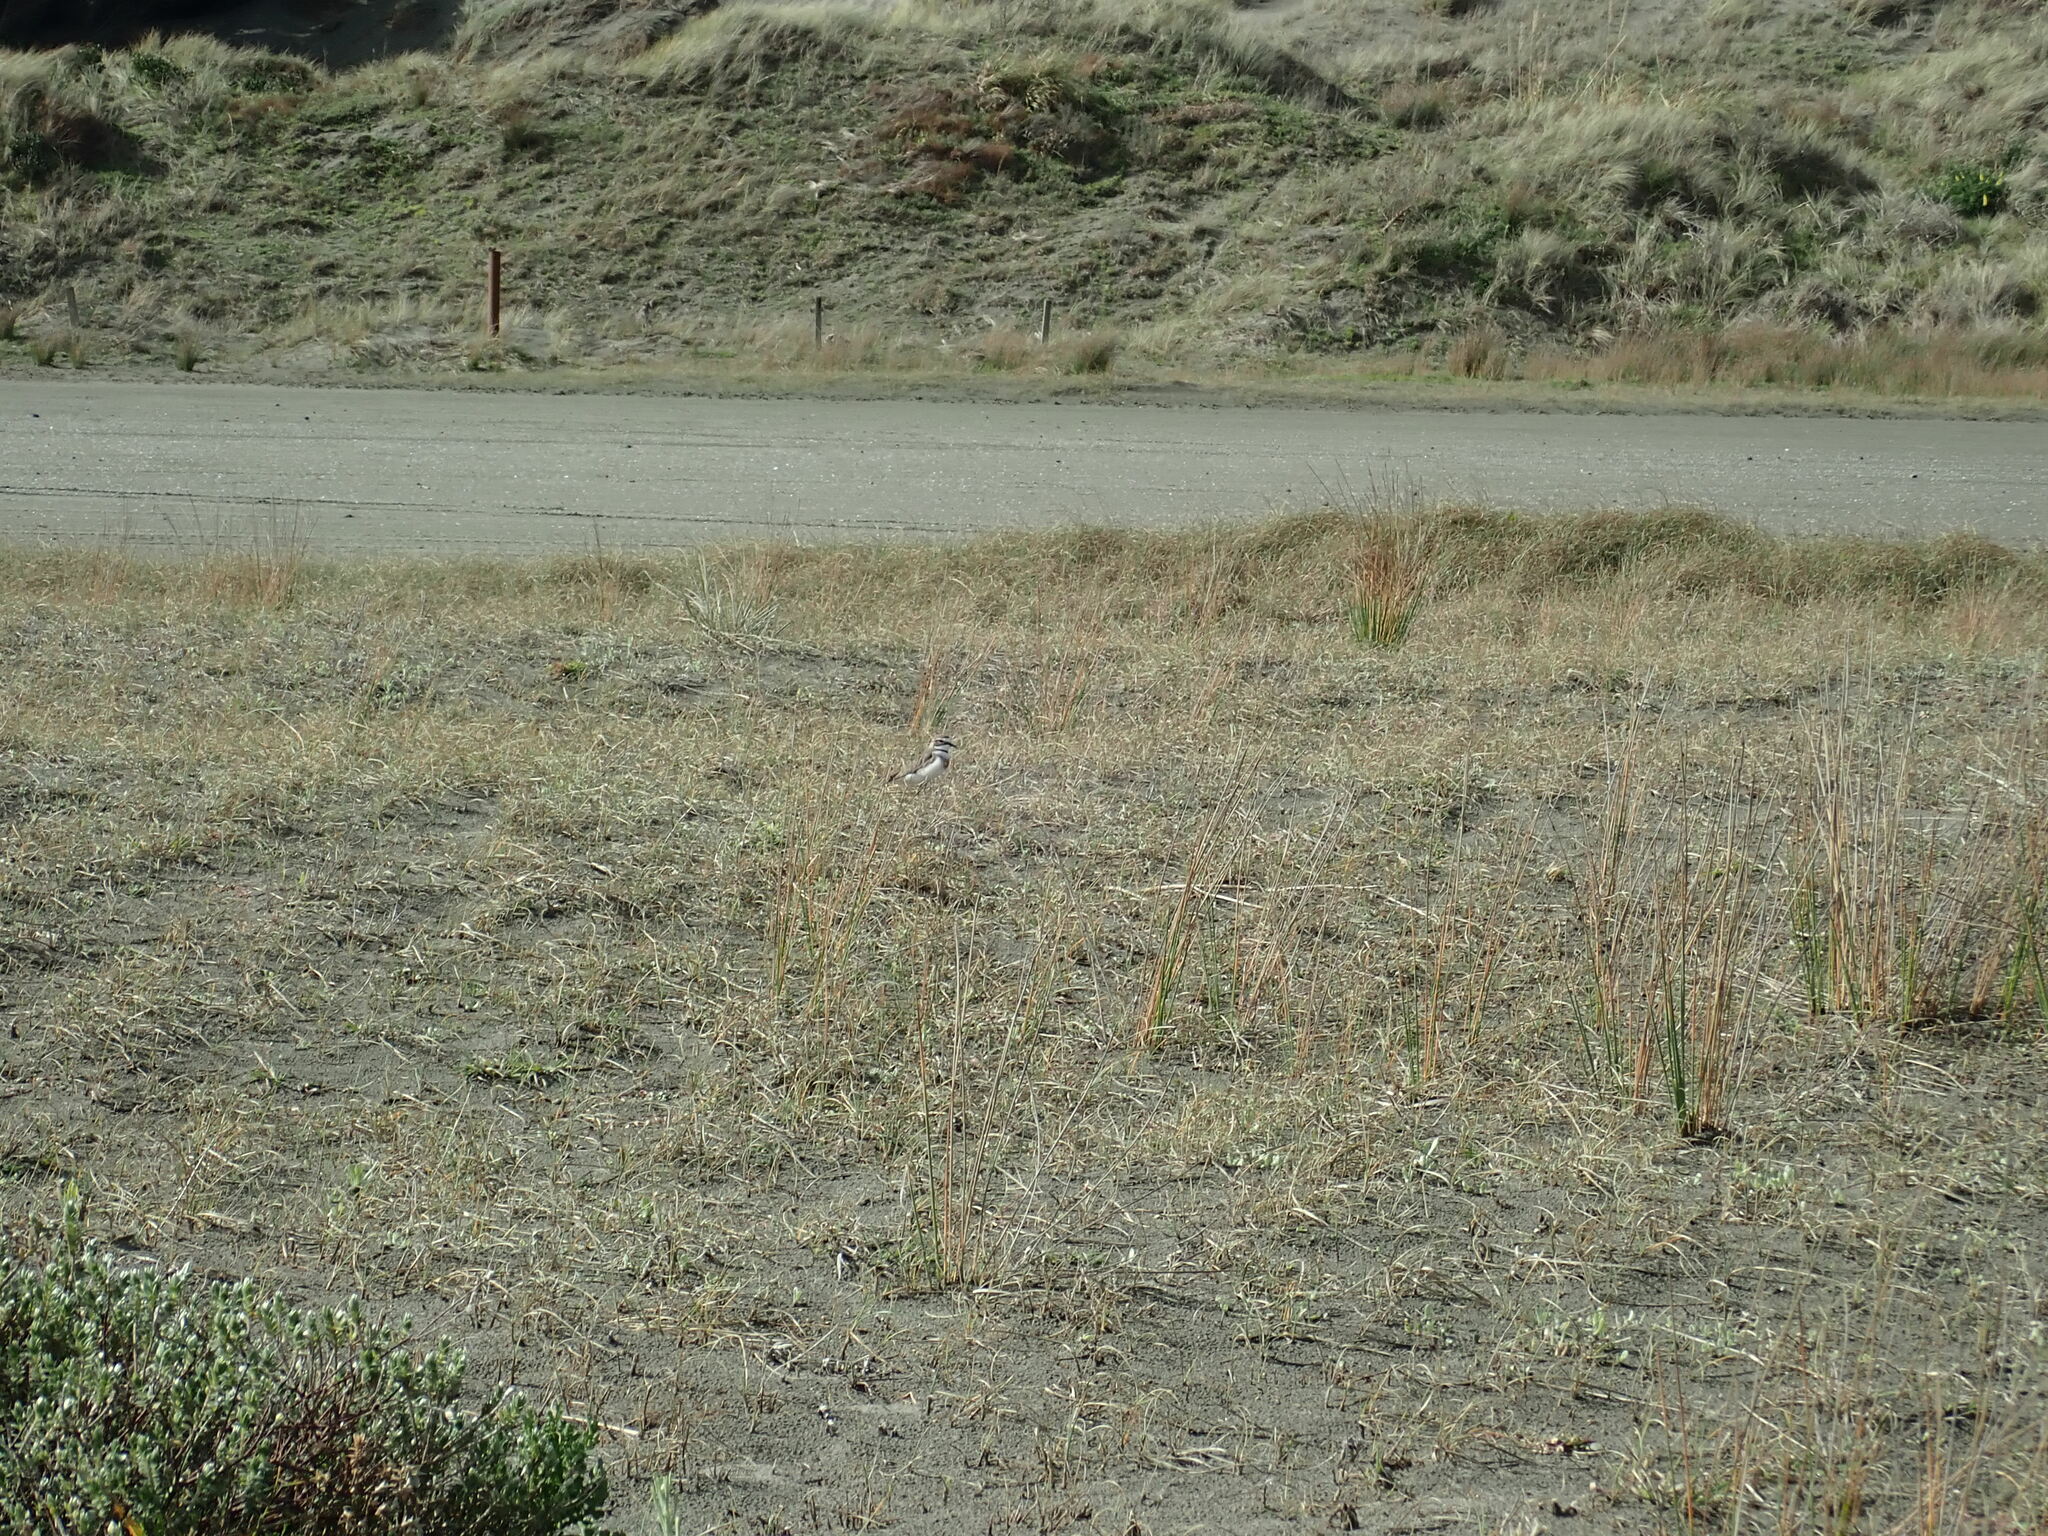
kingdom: Animalia
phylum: Chordata
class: Aves
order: Charadriiformes
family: Charadriidae
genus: Anarhynchus
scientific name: Anarhynchus
